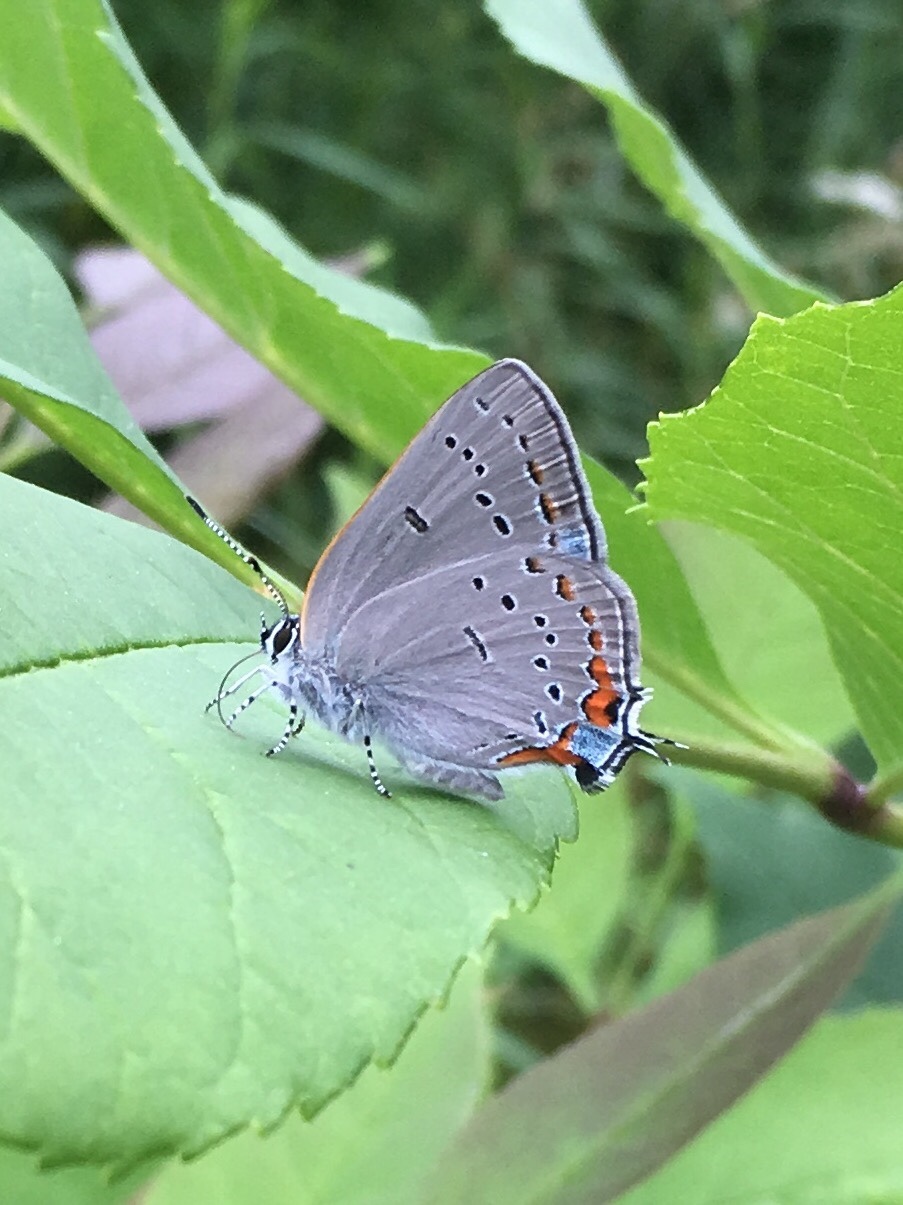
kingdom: Animalia
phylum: Arthropoda
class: Insecta
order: Lepidoptera
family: Lycaenidae
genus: Strymon
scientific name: Strymon acadica
